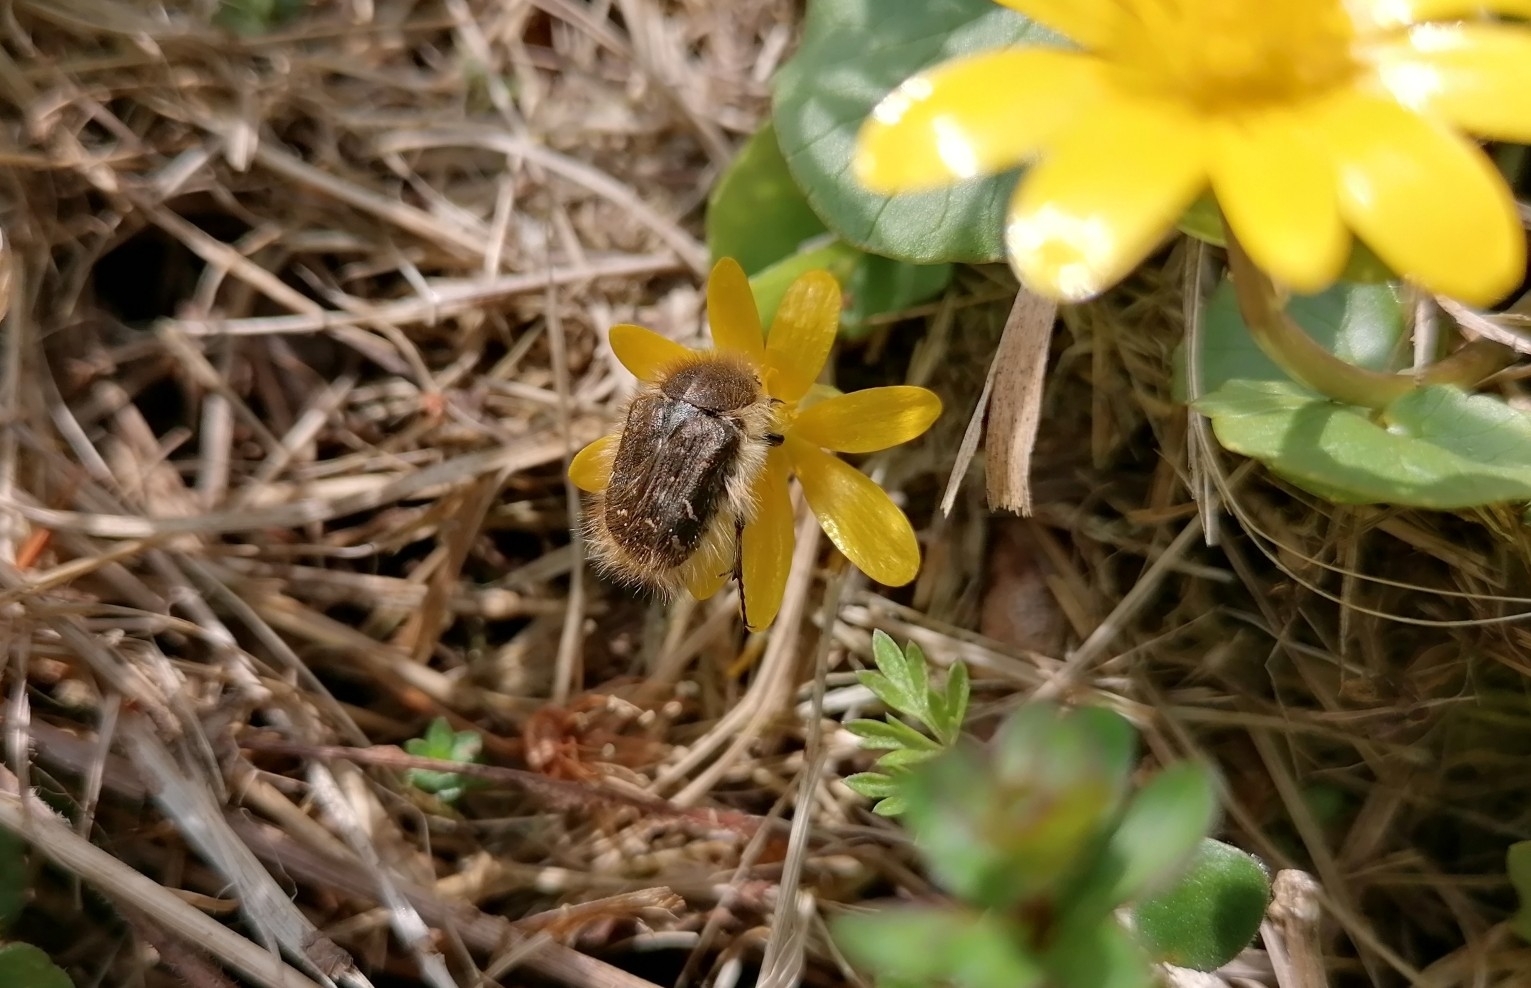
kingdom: Animalia
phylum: Arthropoda
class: Insecta
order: Coleoptera
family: Scarabaeidae
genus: Tropinota
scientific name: Tropinota hirta
